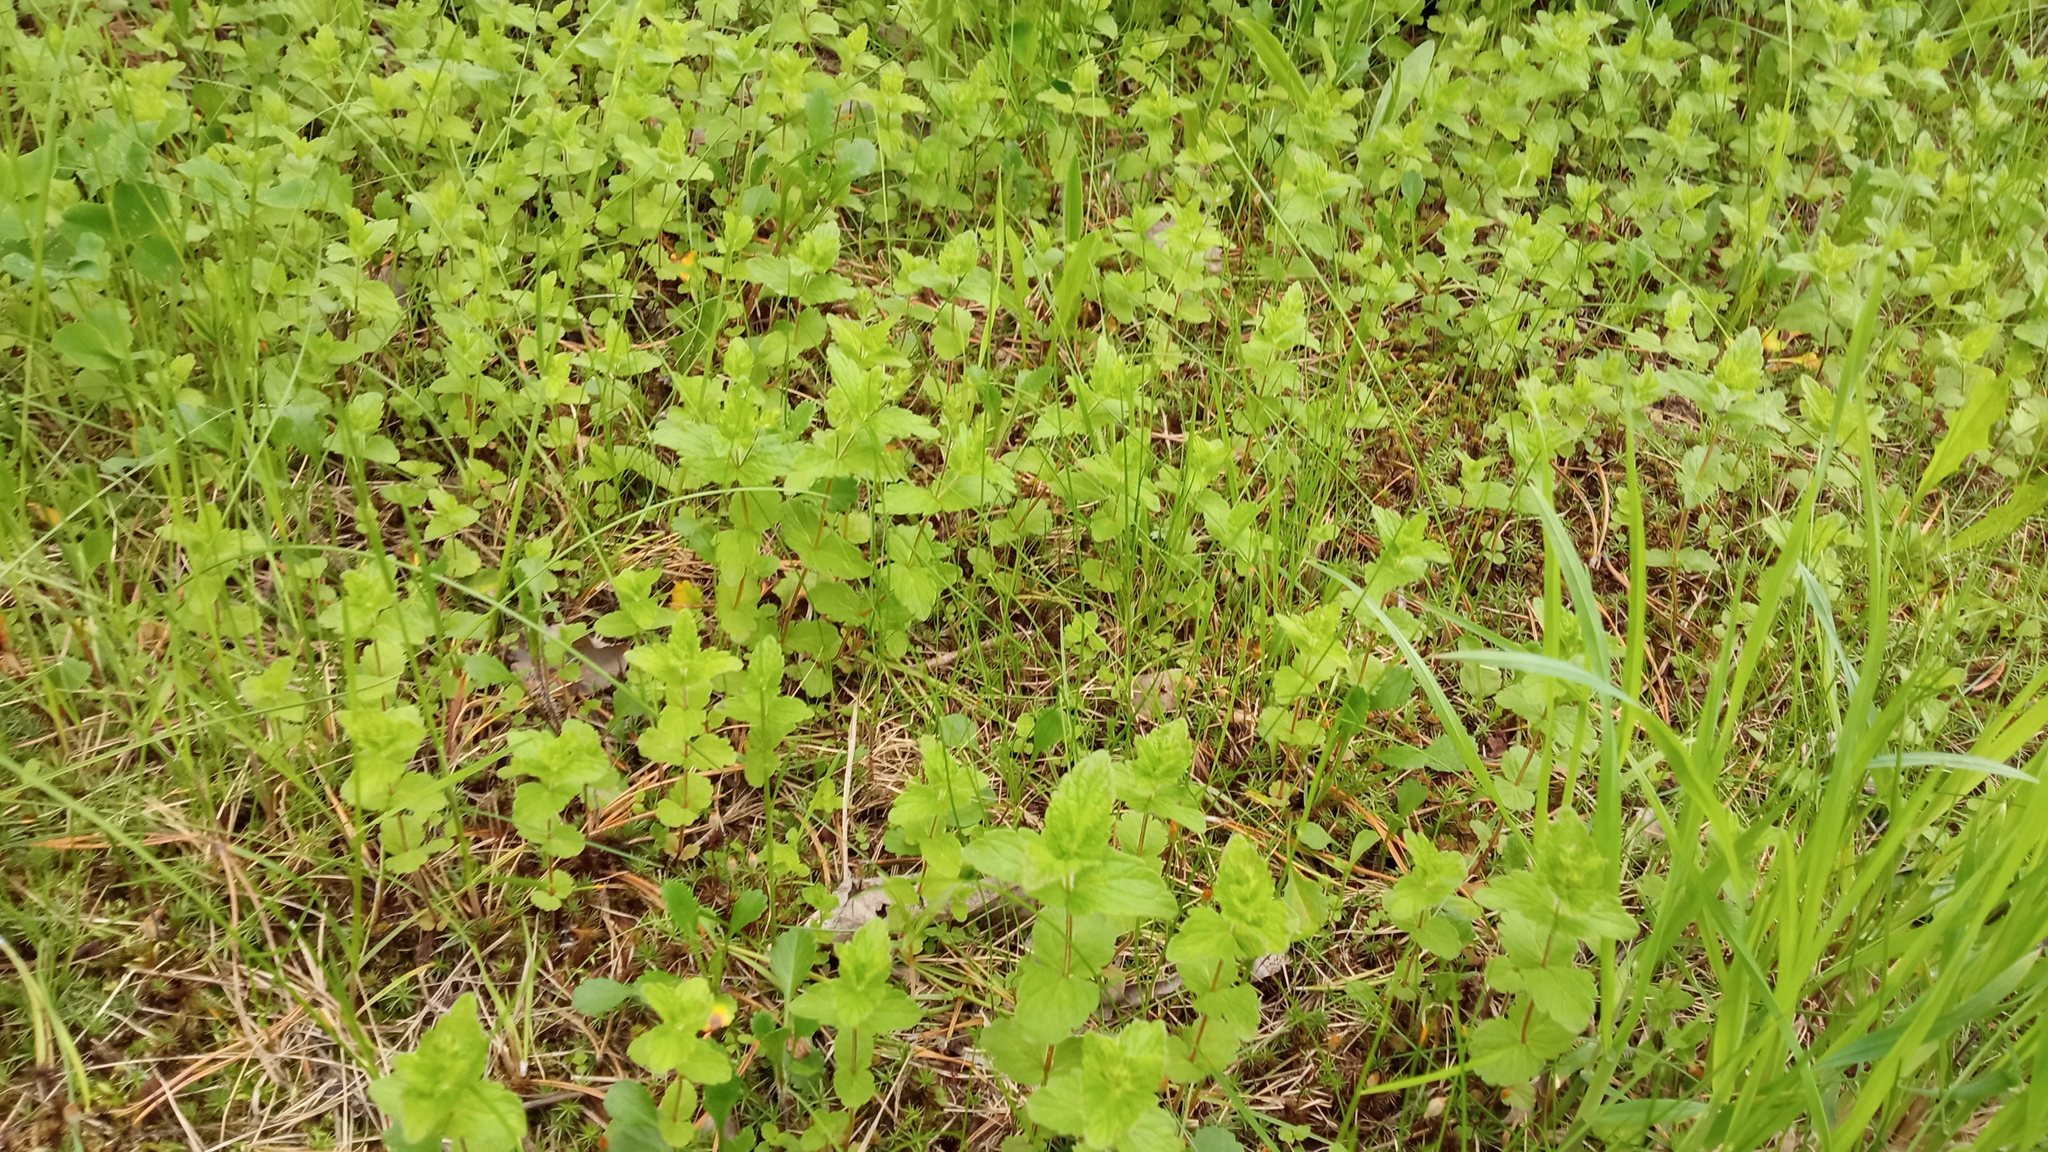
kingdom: Plantae
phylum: Tracheophyta
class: Magnoliopsida
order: Lamiales
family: Plantaginaceae
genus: Veronica
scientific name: Veronica chamaedrys
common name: Germander speedwell
